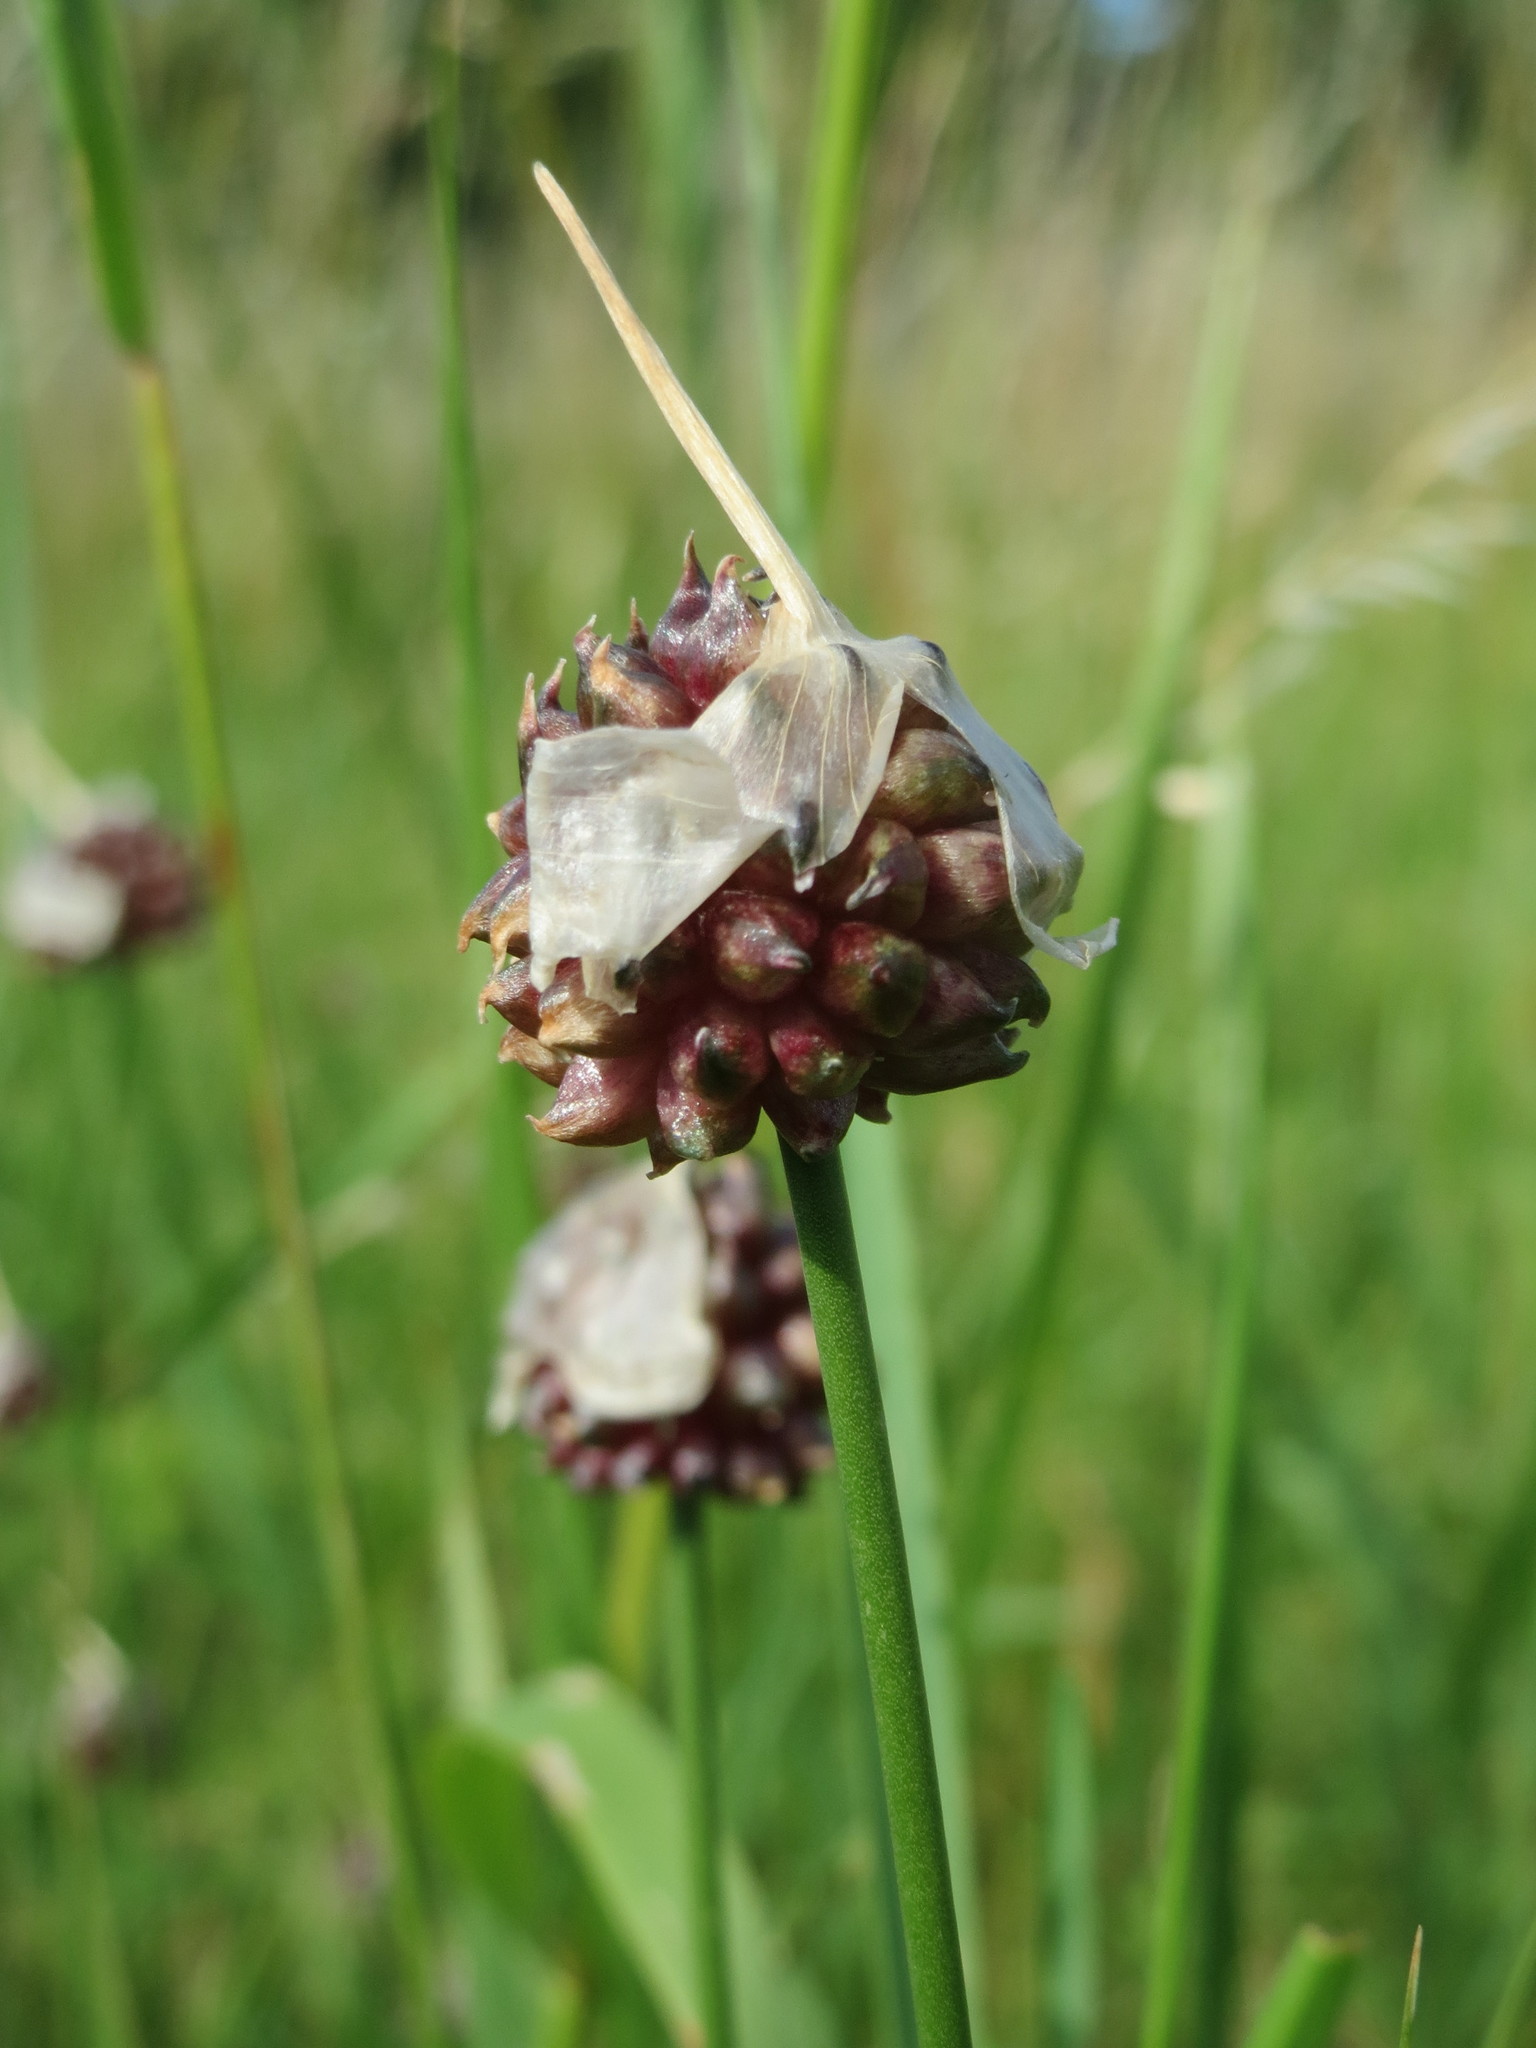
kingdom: Plantae
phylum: Tracheophyta
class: Liliopsida
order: Asparagales
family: Amaryllidaceae
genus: Allium
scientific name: Allium vineale
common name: Crow garlic
